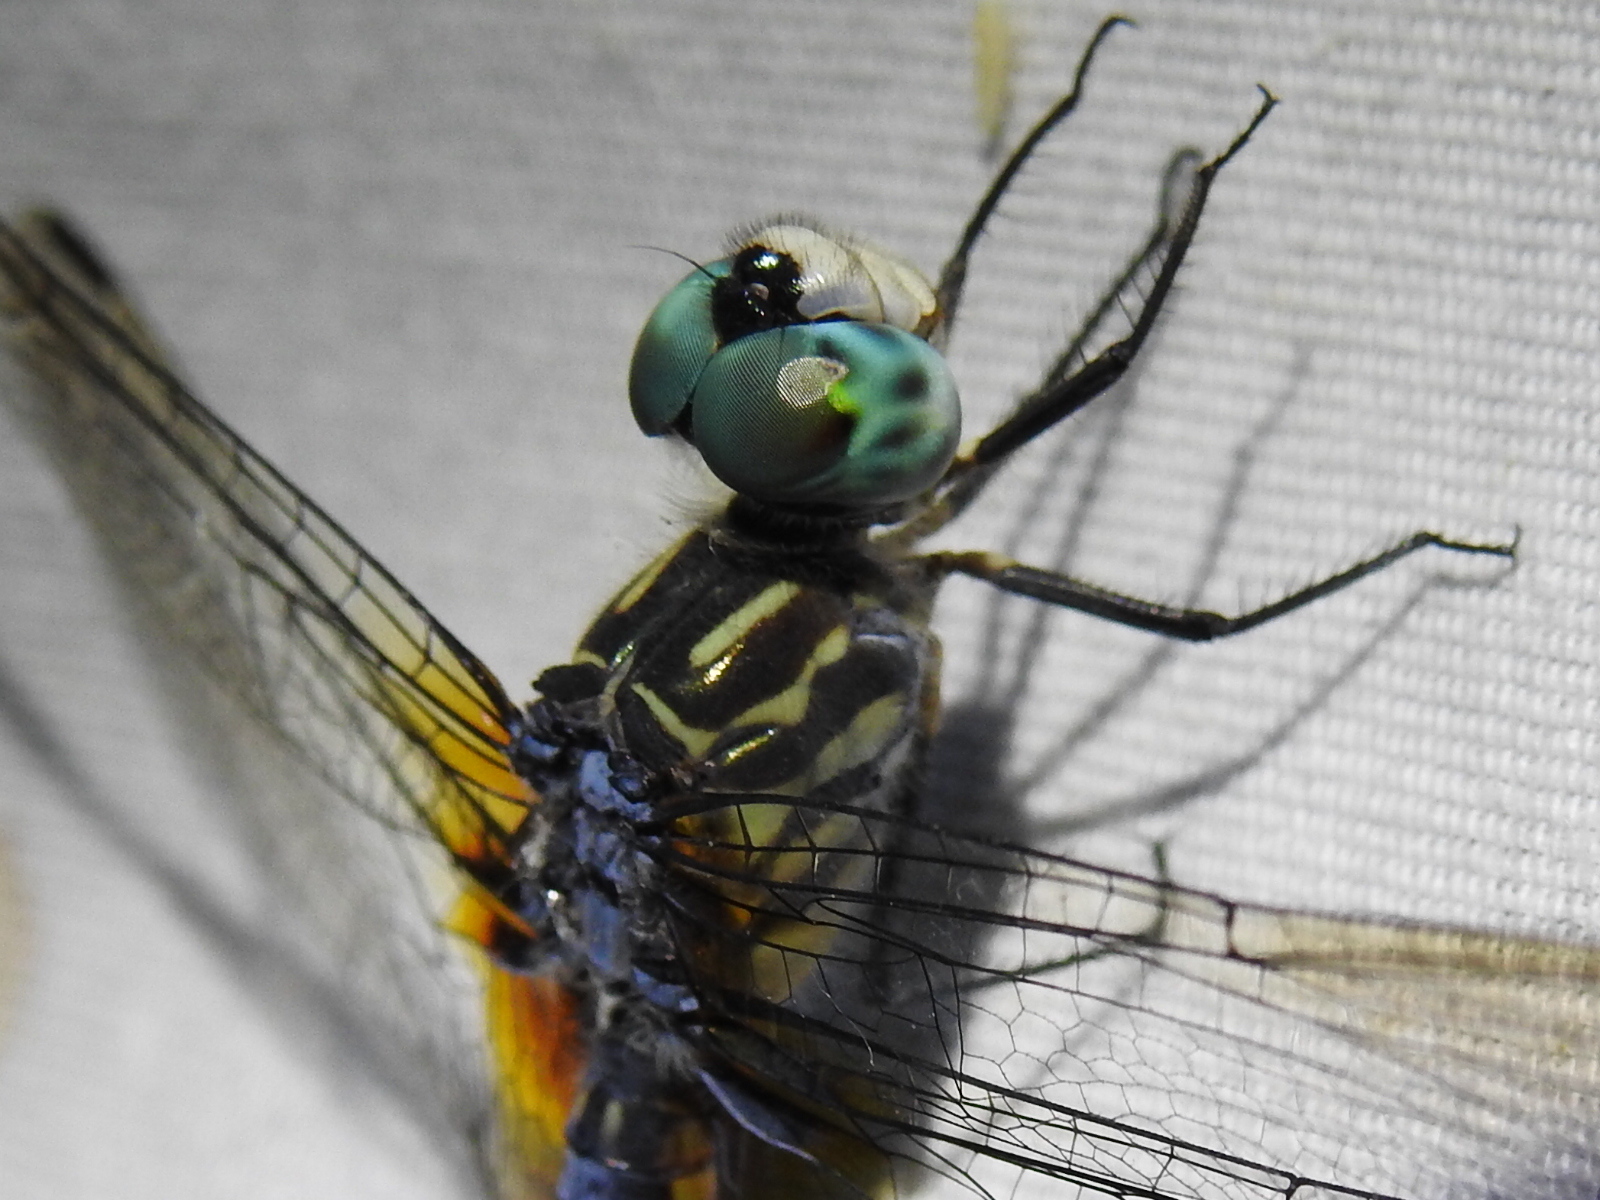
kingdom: Animalia
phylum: Arthropoda
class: Insecta
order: Odonata
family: Libellulidae
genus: Pachydiplax
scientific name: Pachydiplax longipennis
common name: Blue dasher
